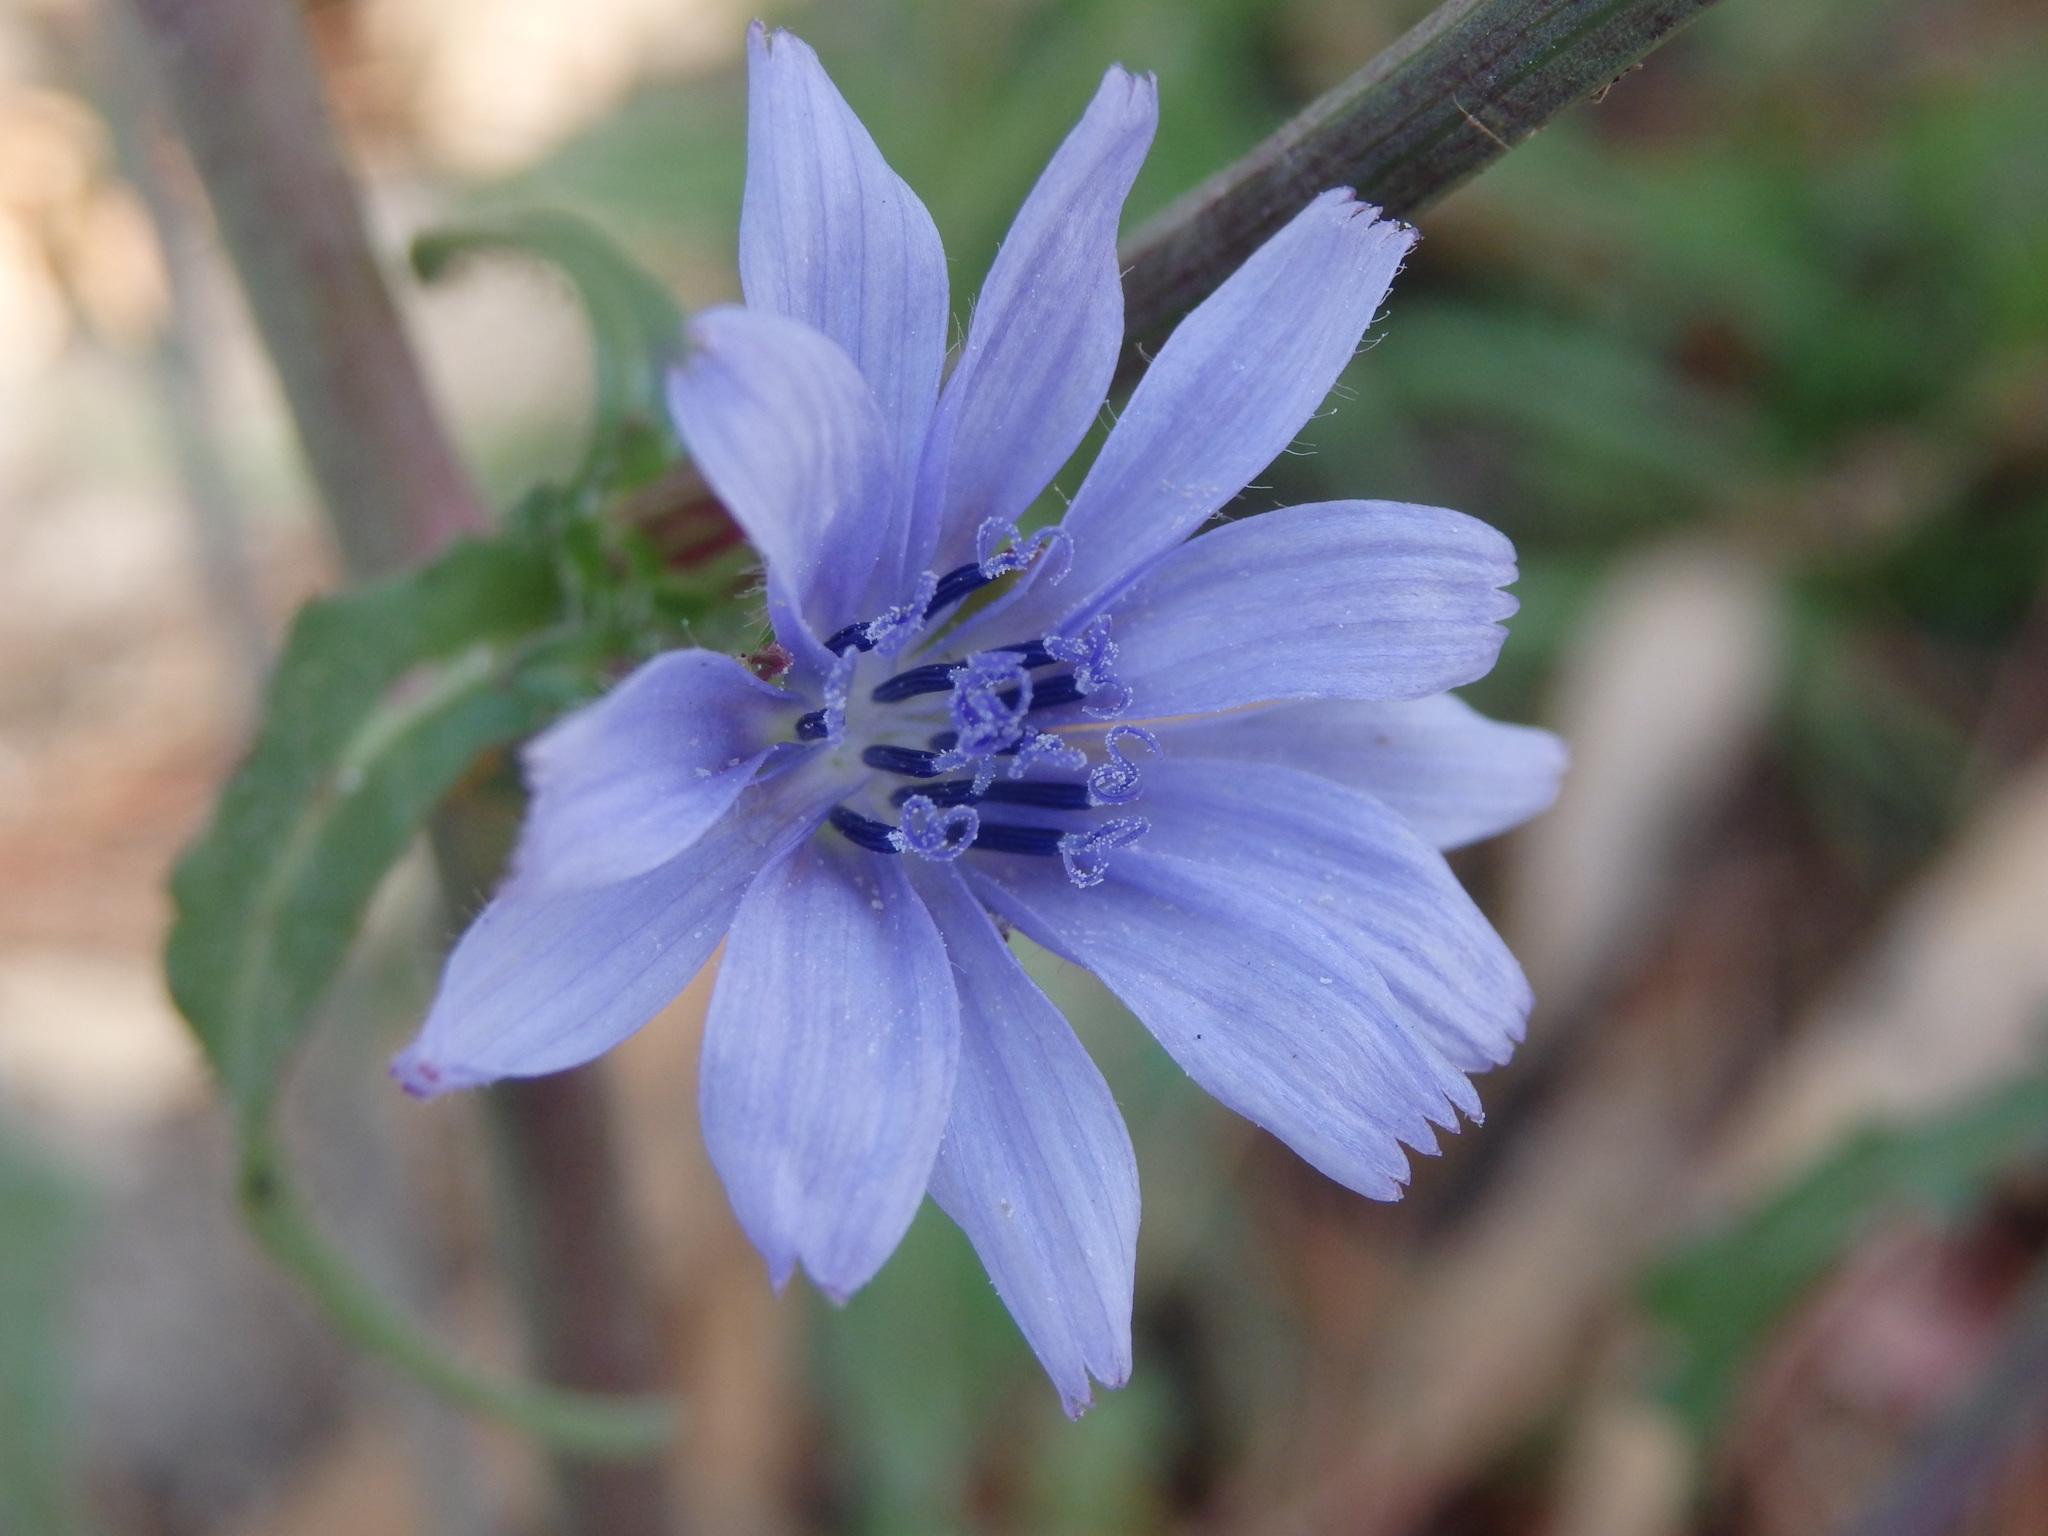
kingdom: Plantae
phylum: Tracheophyta
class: Magnoliopsida
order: Asterales
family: Asteraceae
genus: Cichorium
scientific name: Cichorium intybus
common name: Chicory
